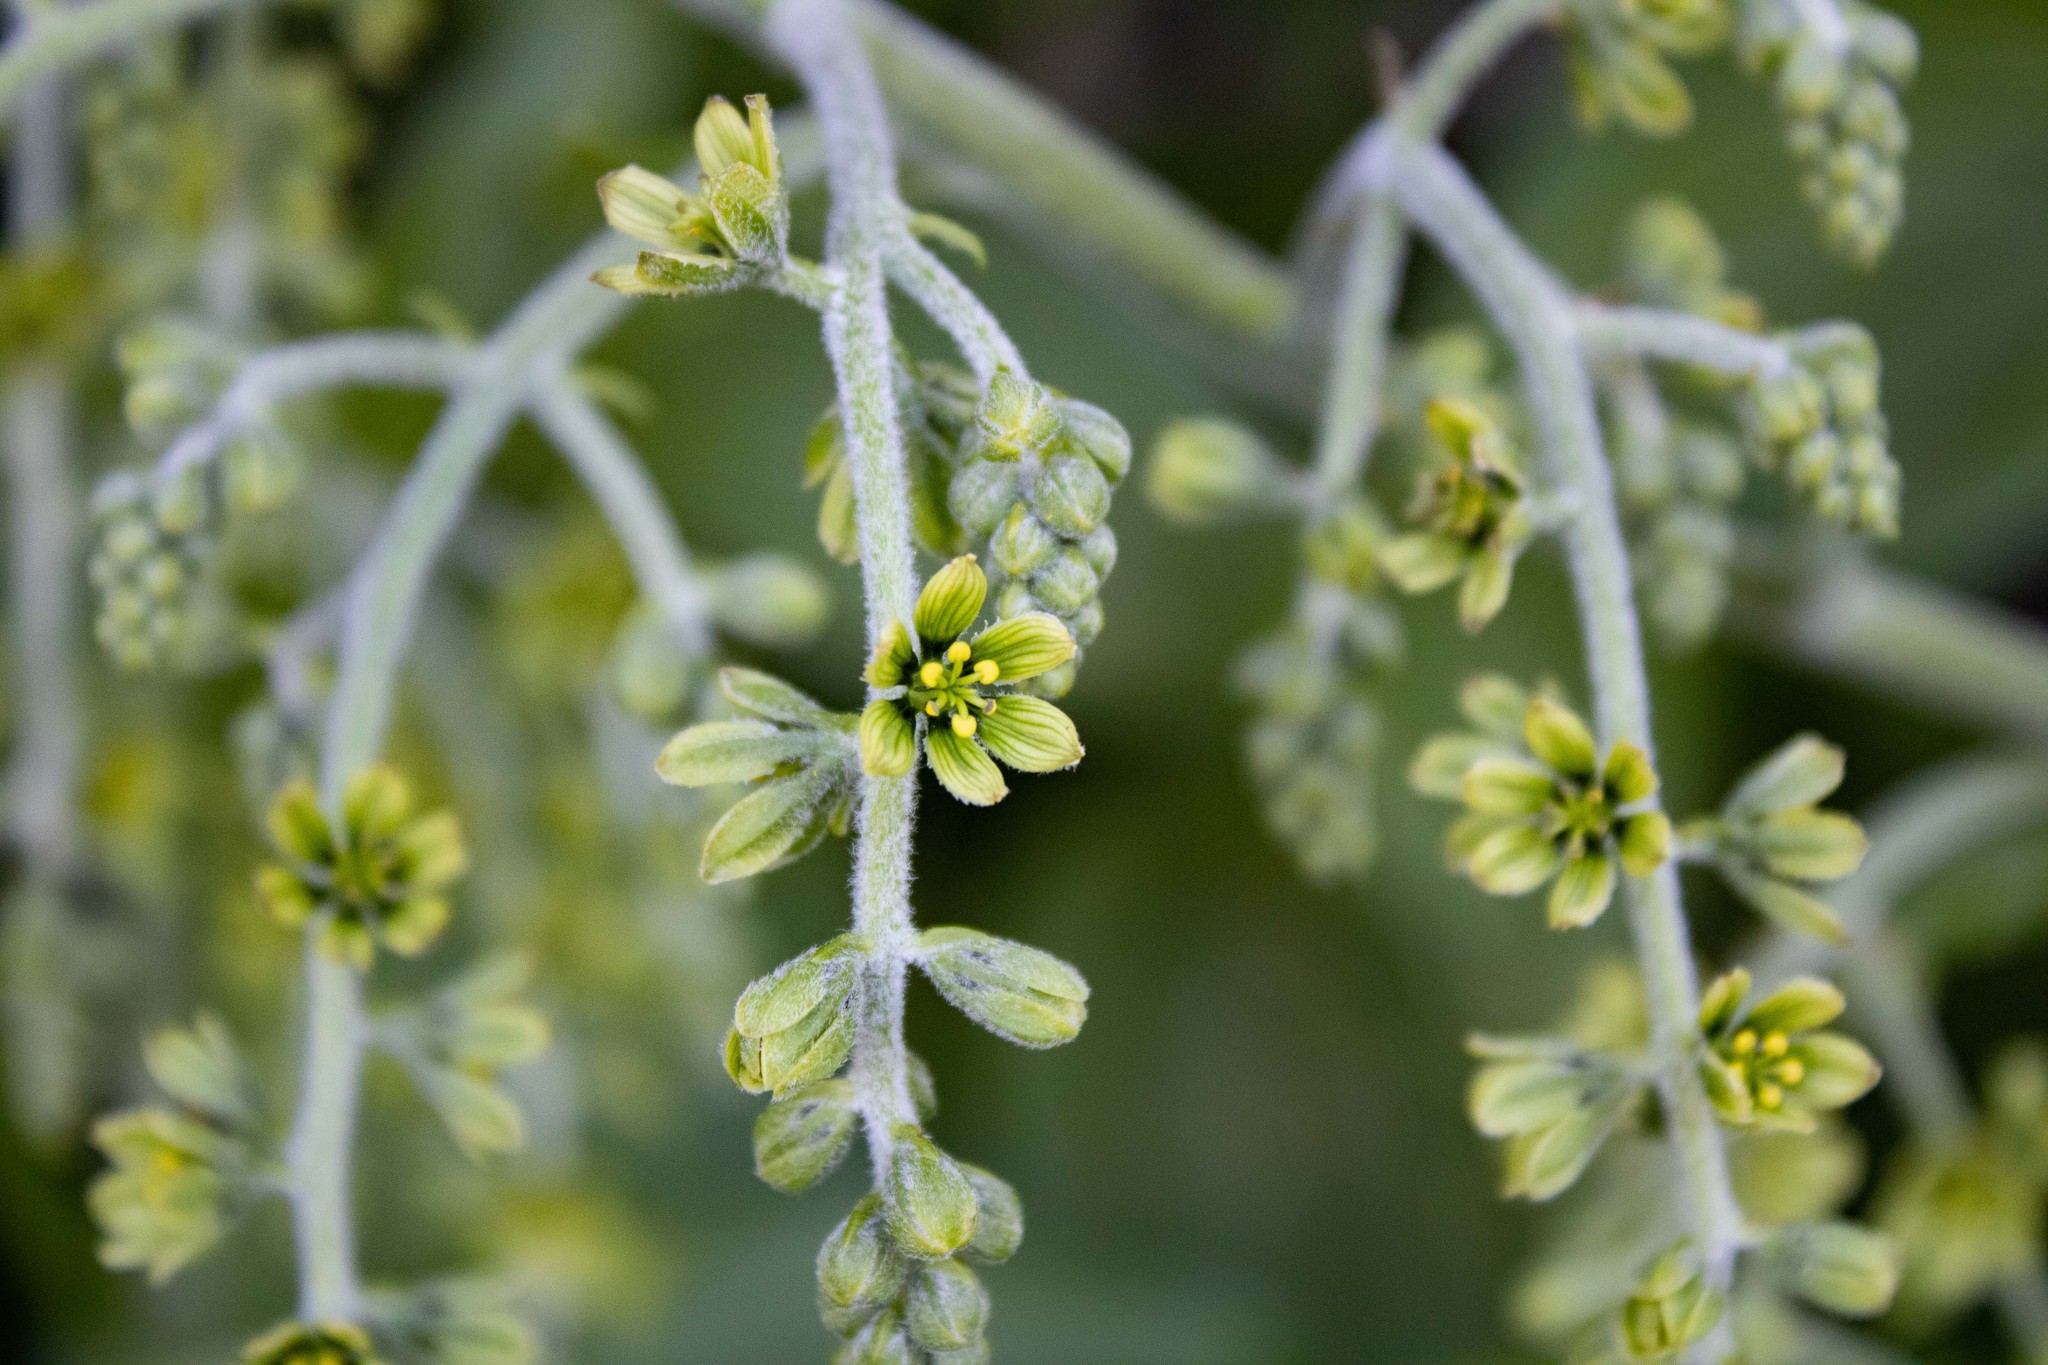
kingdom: Plantae
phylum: Tracheophyta
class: Liliopsida
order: Liliales
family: Melanthiaceae
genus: Veratrum
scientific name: Veratrum viride
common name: American false hellebore
